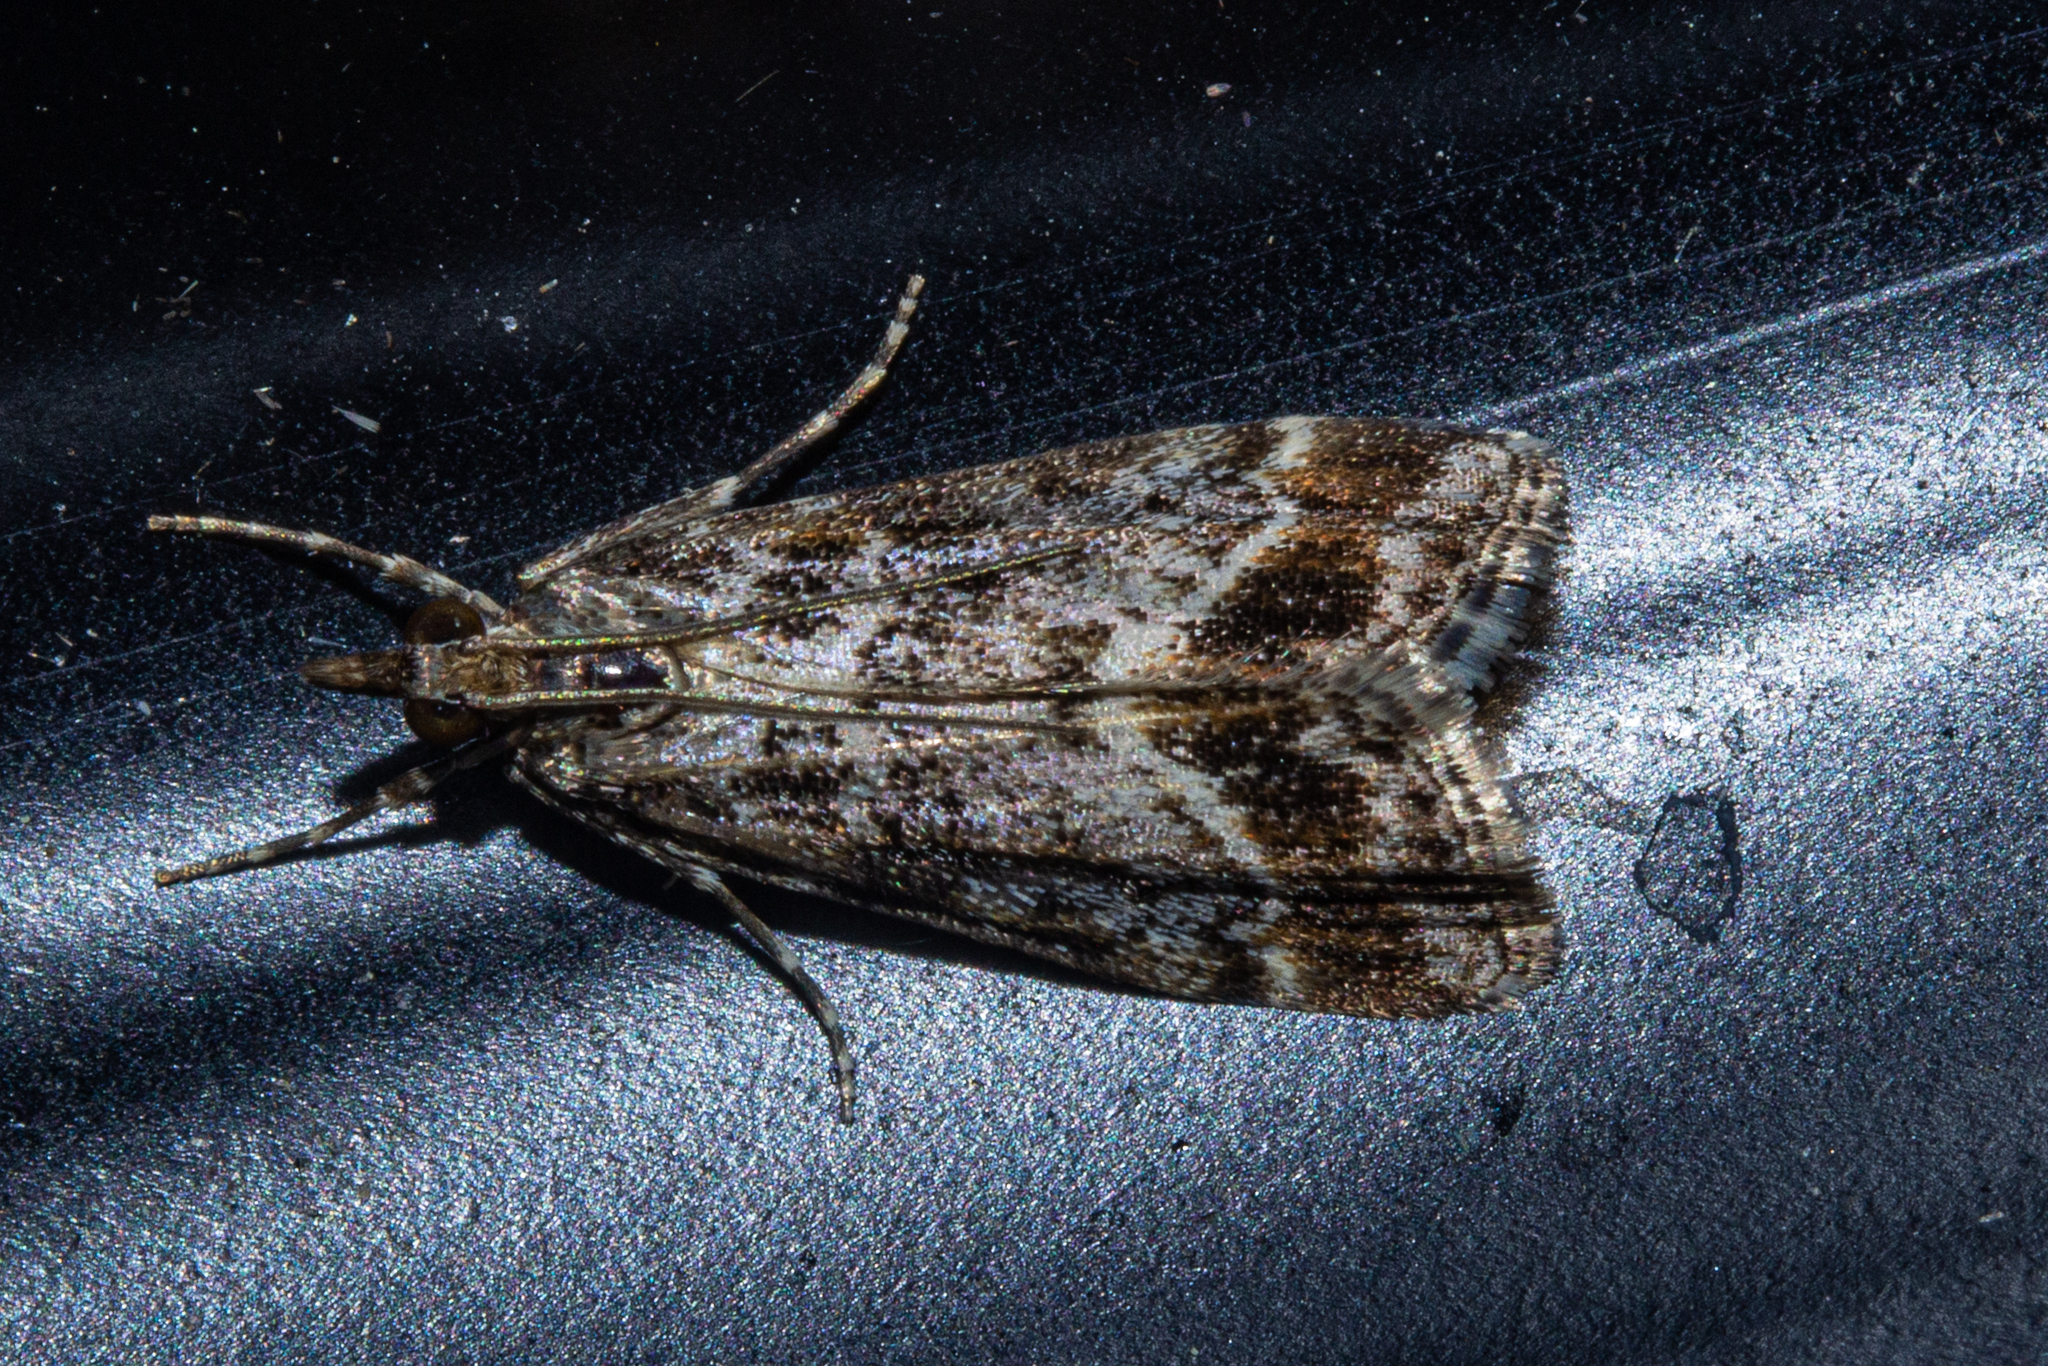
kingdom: Animalia
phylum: Arthropoda
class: Insecta
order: Lepidoptera
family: Crambidae
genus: Eudonia
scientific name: Eudonia legnota
